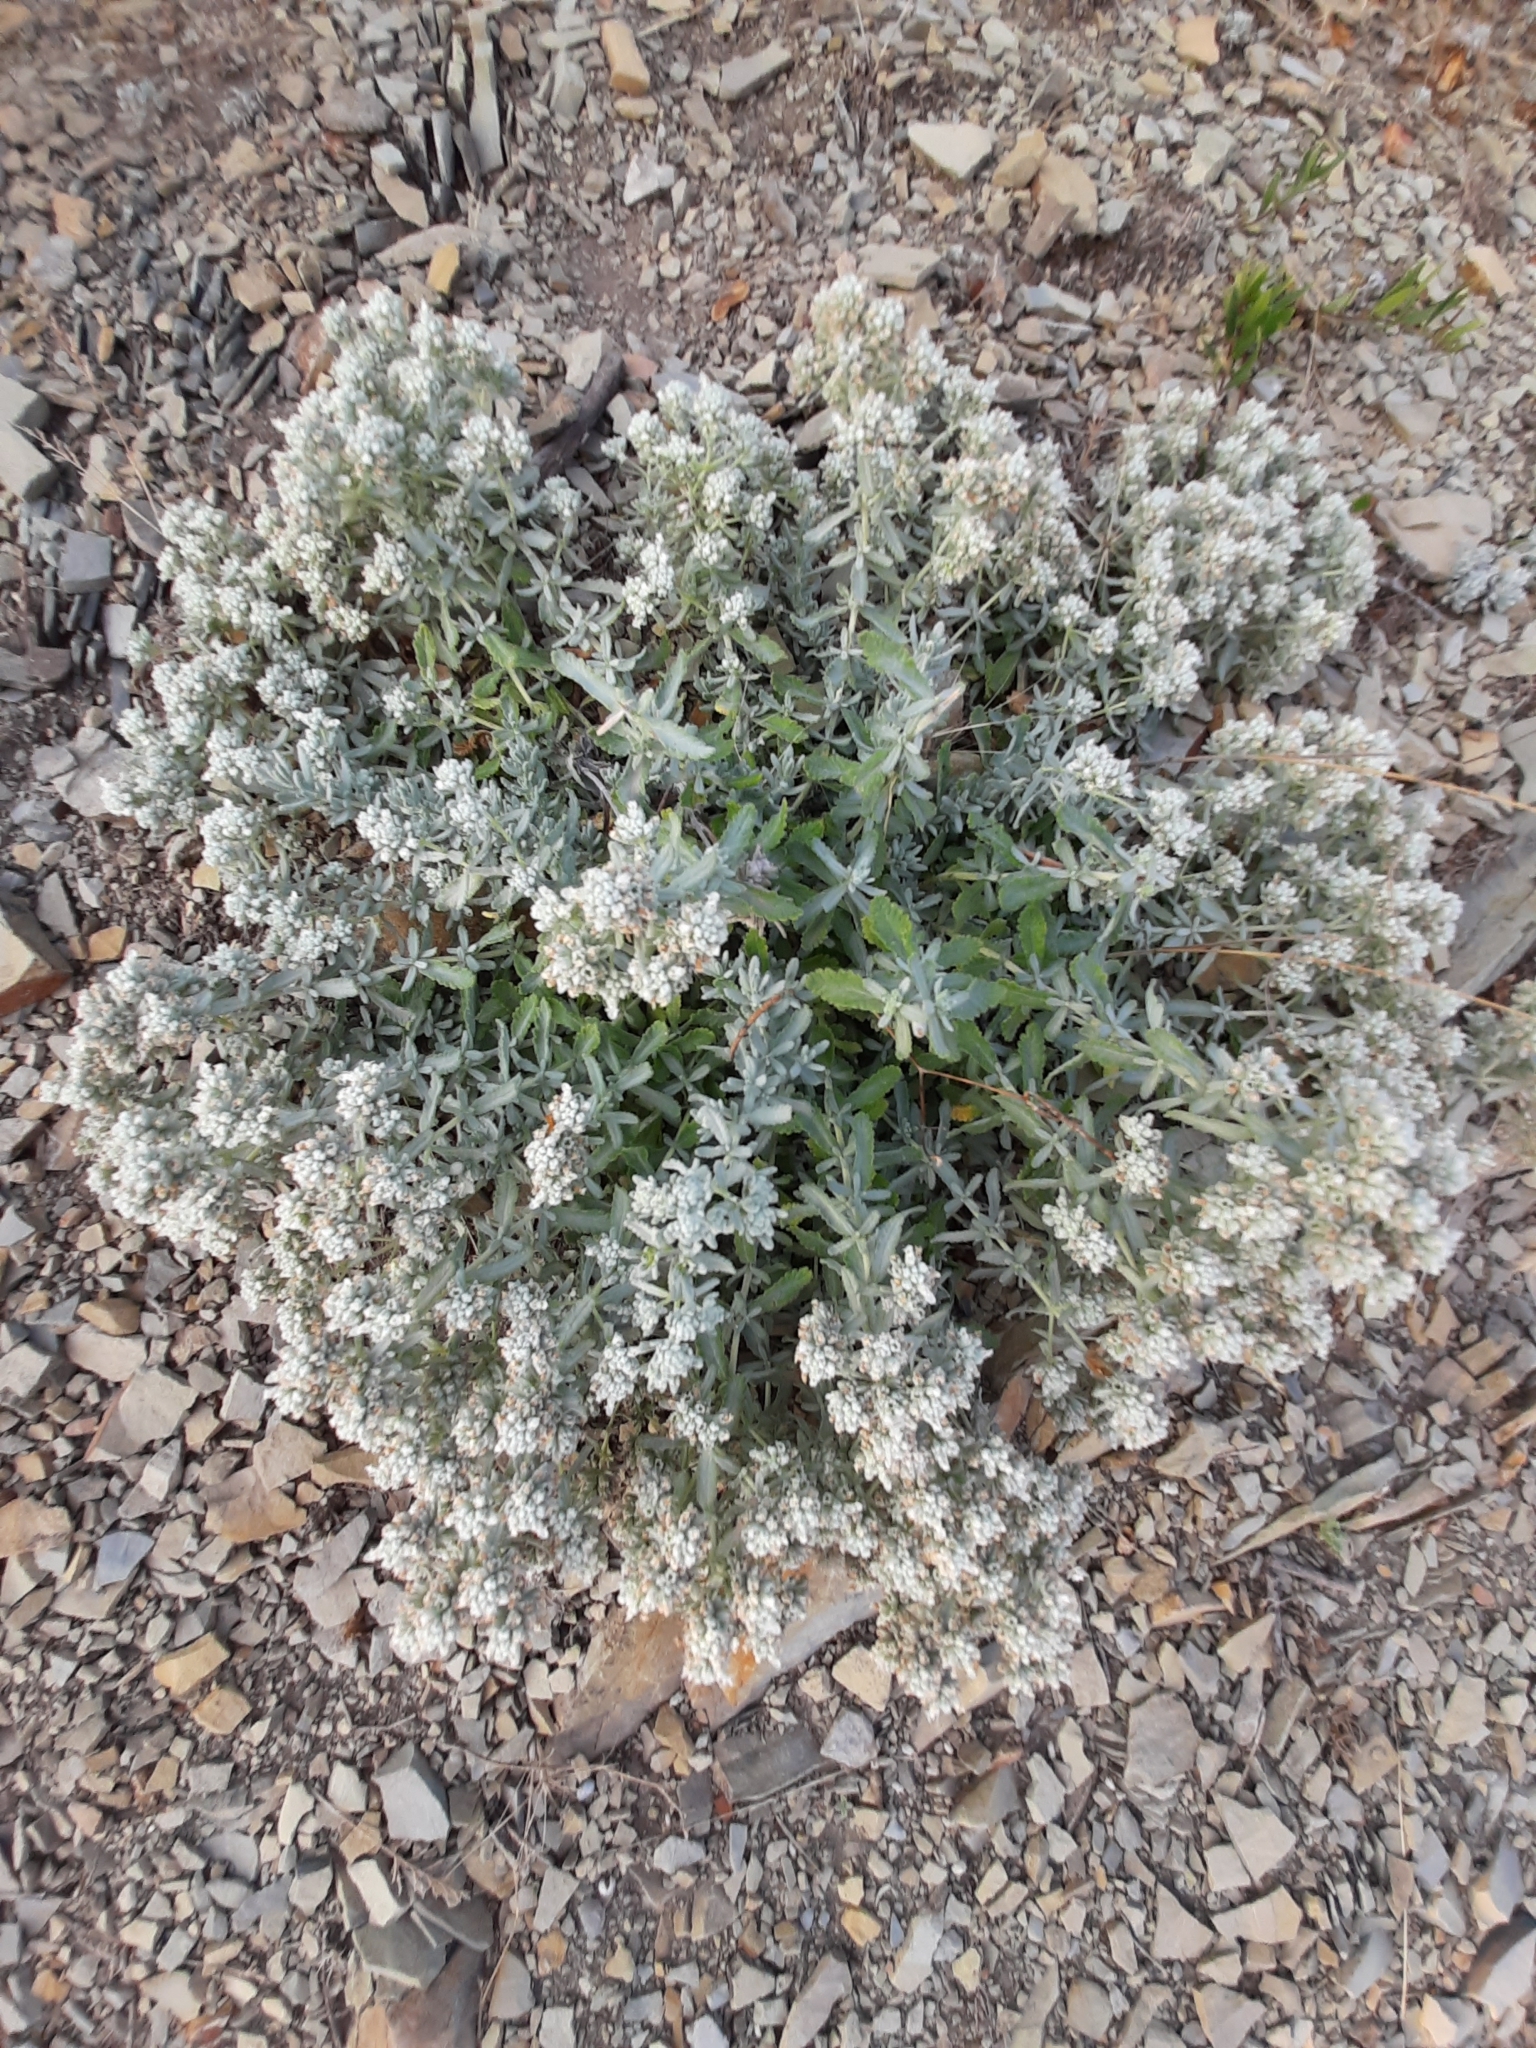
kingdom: Plantae
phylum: Tracheophyta
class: Magnoliopsida
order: Lamiales
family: Lamiaceae
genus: Teucrium
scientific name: Teucrium polium
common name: Poley
